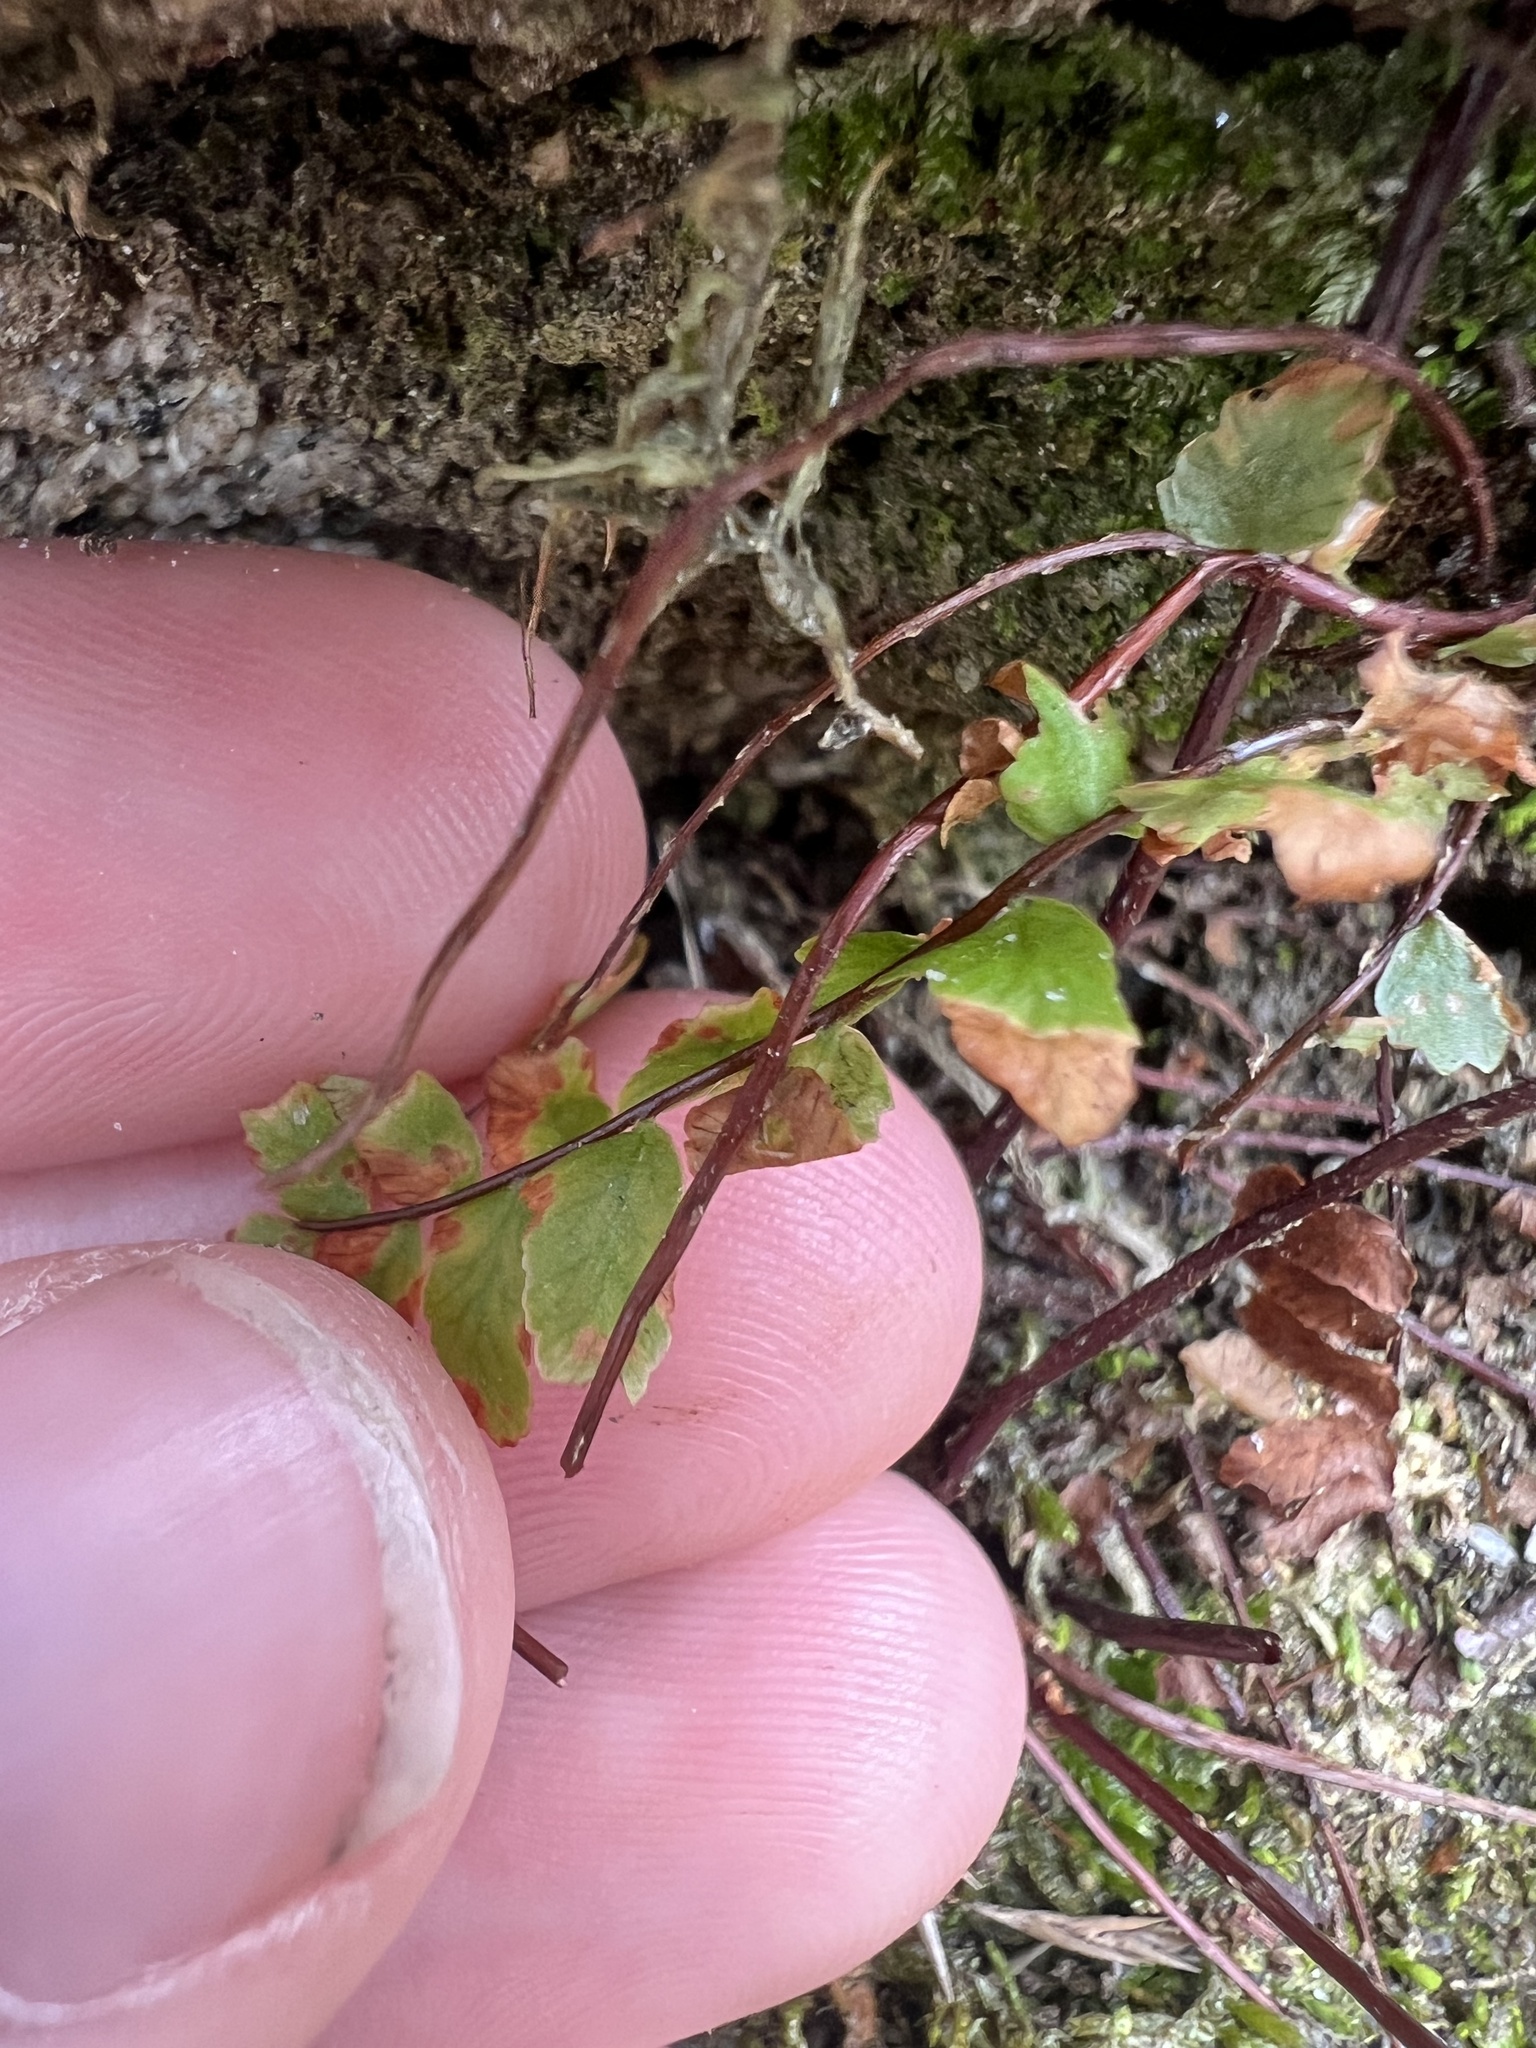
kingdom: Plantae
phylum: Tracheophyta
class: Polypodiopsida
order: Polypodiales
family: Aspleniaceae
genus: Asplenium
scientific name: Asplenium platyneuron
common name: Ebony spleenwort
